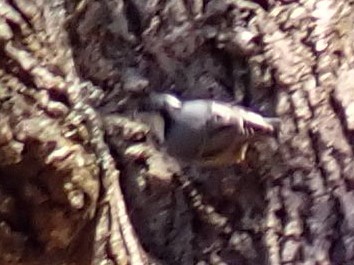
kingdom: Animalia
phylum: Chordata
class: Aves
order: Passeriformes
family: Sittidae
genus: Sitta
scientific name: Sitta carolinensis
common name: White-breasted nuthatch
